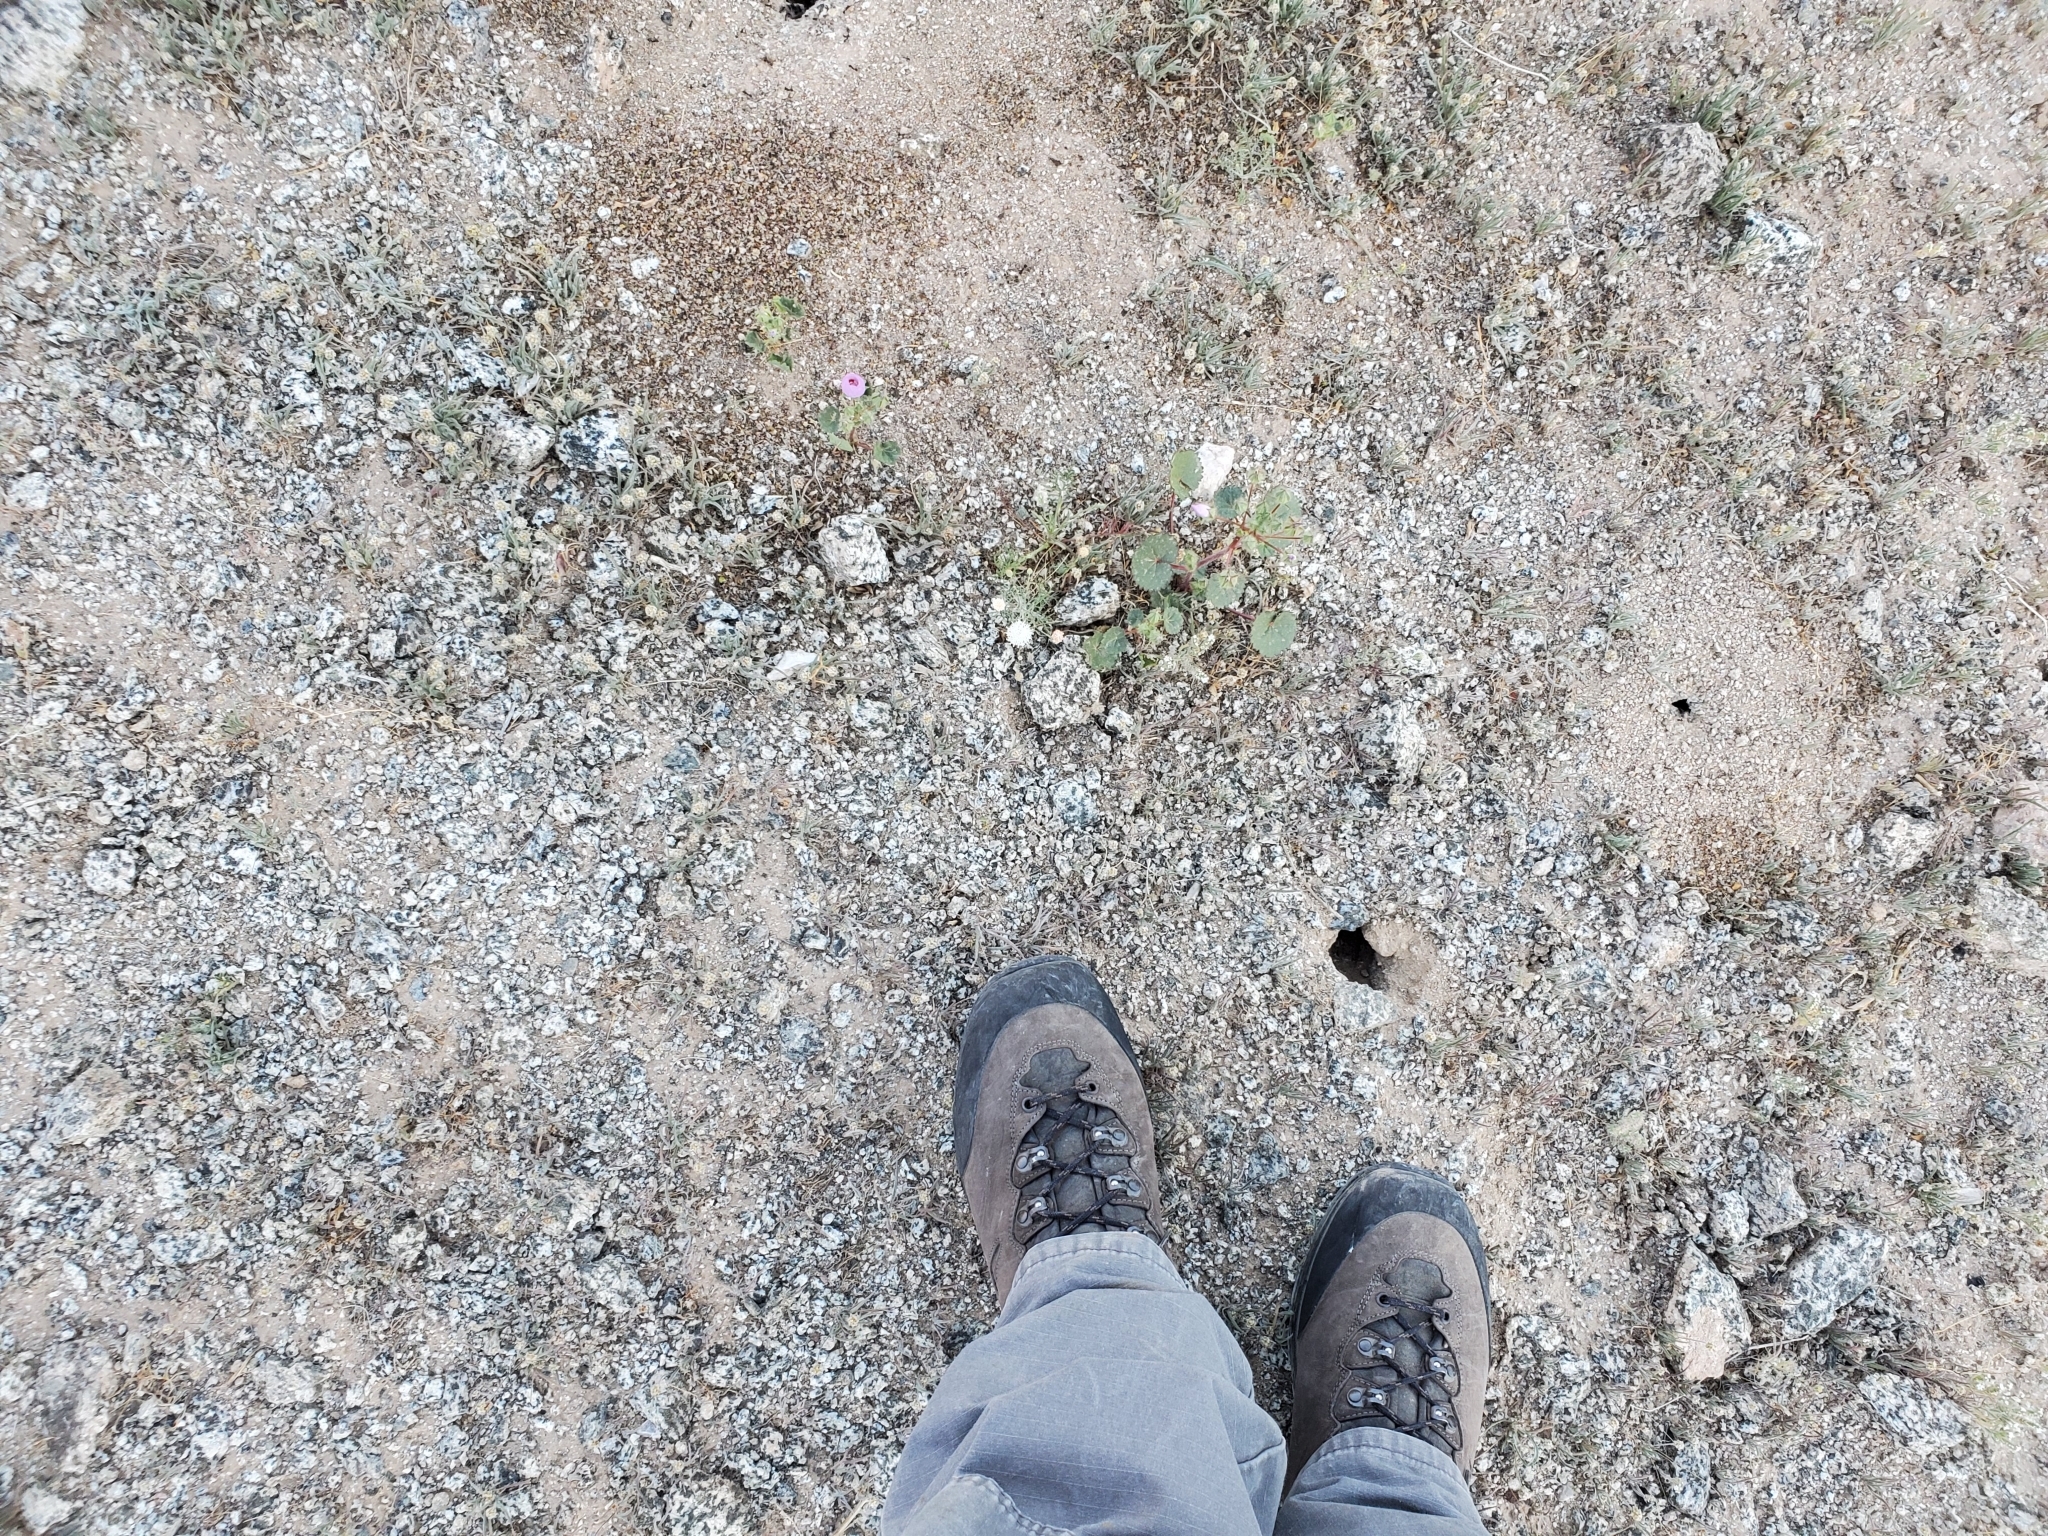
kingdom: Animalia
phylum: Arthropoda
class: Insecta
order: Hymenoptera
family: Formicidae
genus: Messor
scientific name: Messor pergandei
